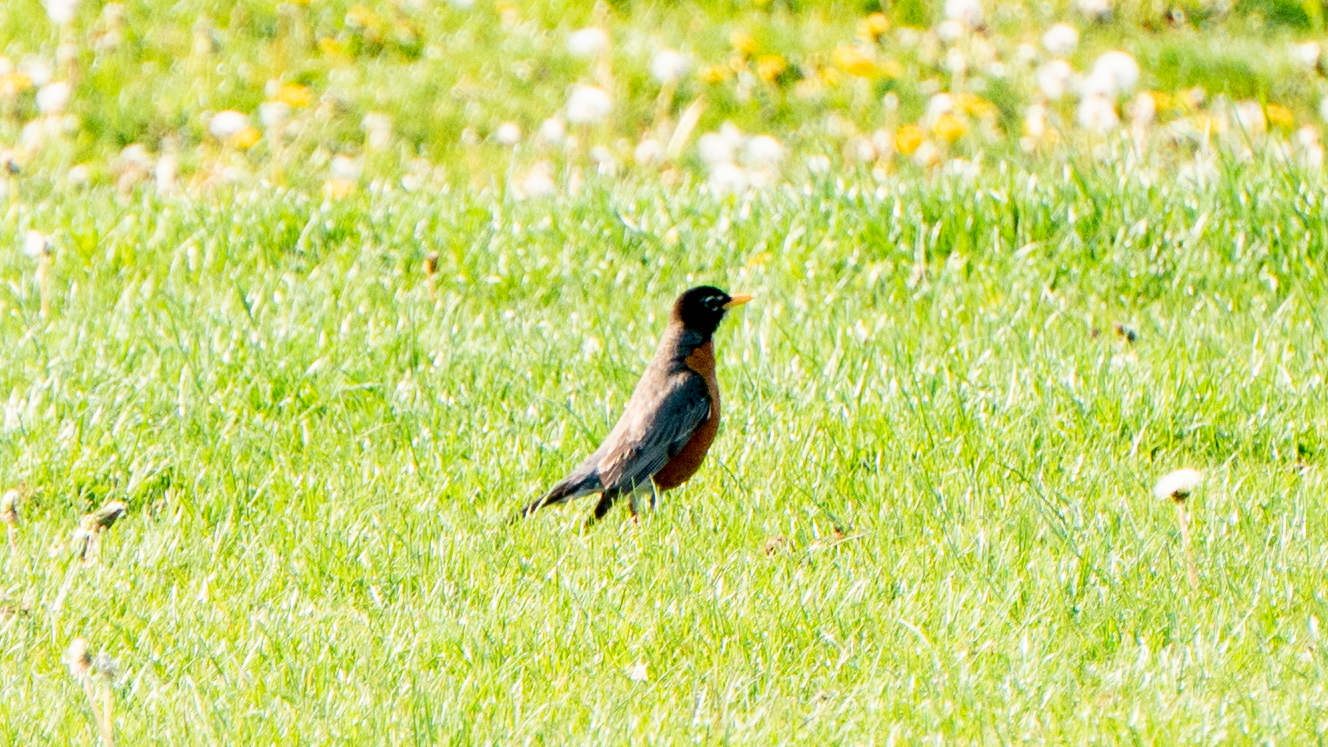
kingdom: Animalia
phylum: Chordata
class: Aves
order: Passeriformes
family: Turdidae
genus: Turdus
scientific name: Turdus migratorius
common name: American robin
